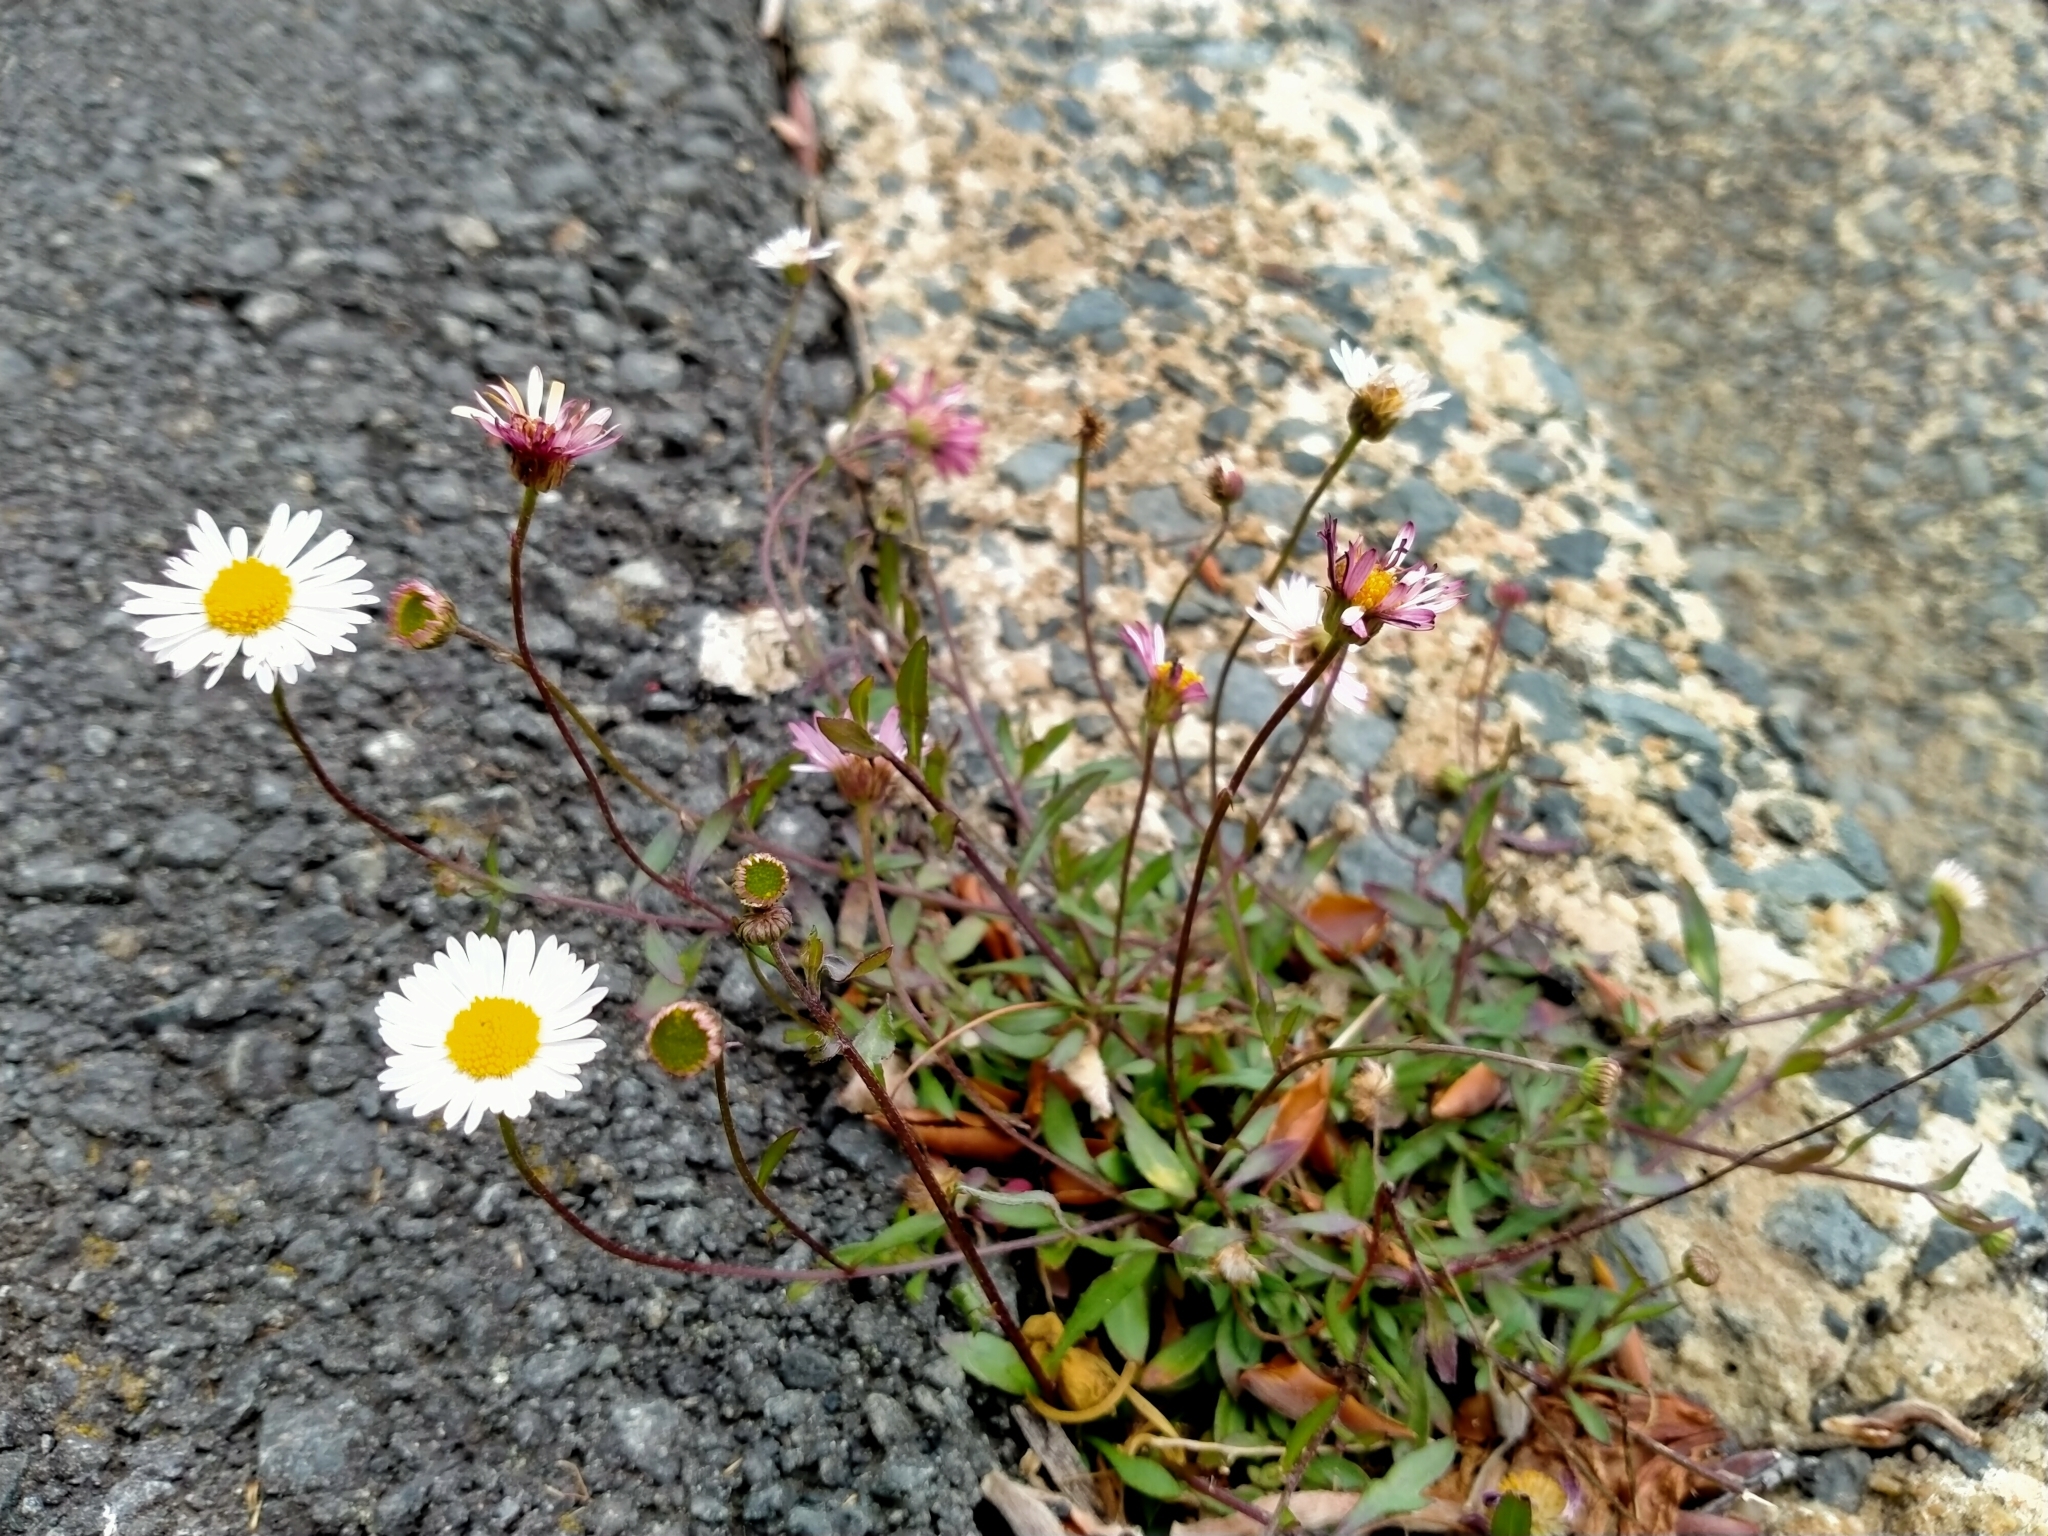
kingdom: Plantae
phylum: Tracheophyta
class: Magnoliopsida
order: Asterales
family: Asteraceae
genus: Erigeron
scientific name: Erigeron karvinskianus
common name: Mexican fleabane
